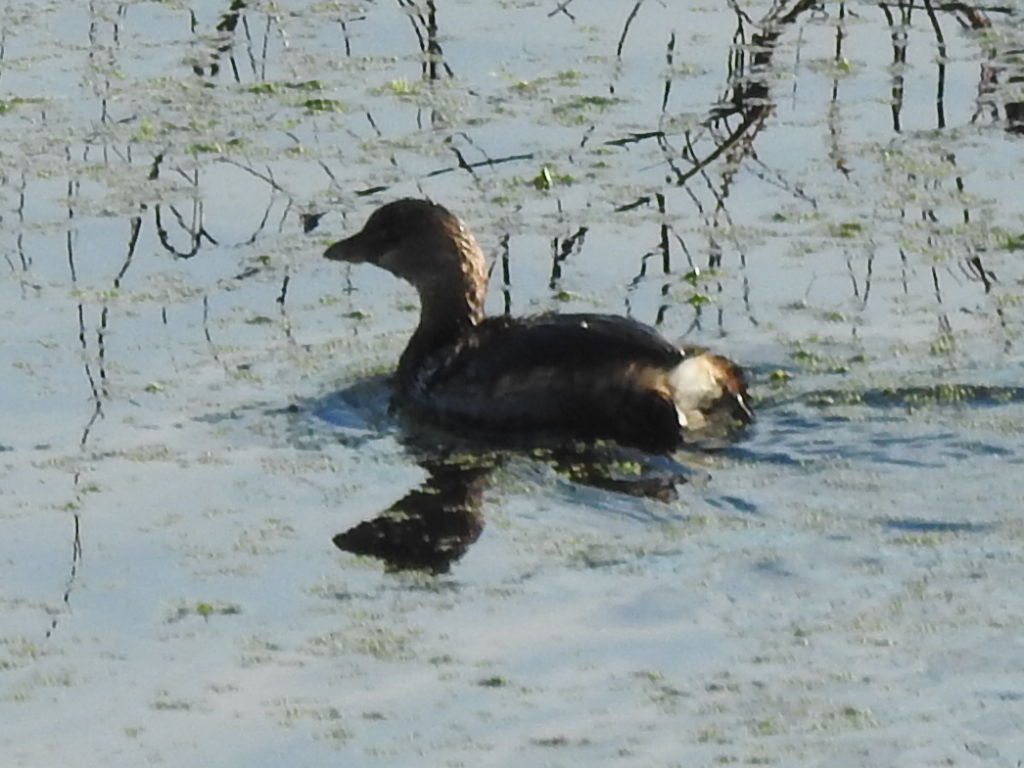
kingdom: Animalia
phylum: Chordata
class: Aves
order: Podicipediformes
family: Podicipedidae
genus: Podilymbus
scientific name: Podilymbus podiceps
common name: Pied-billed grebe
